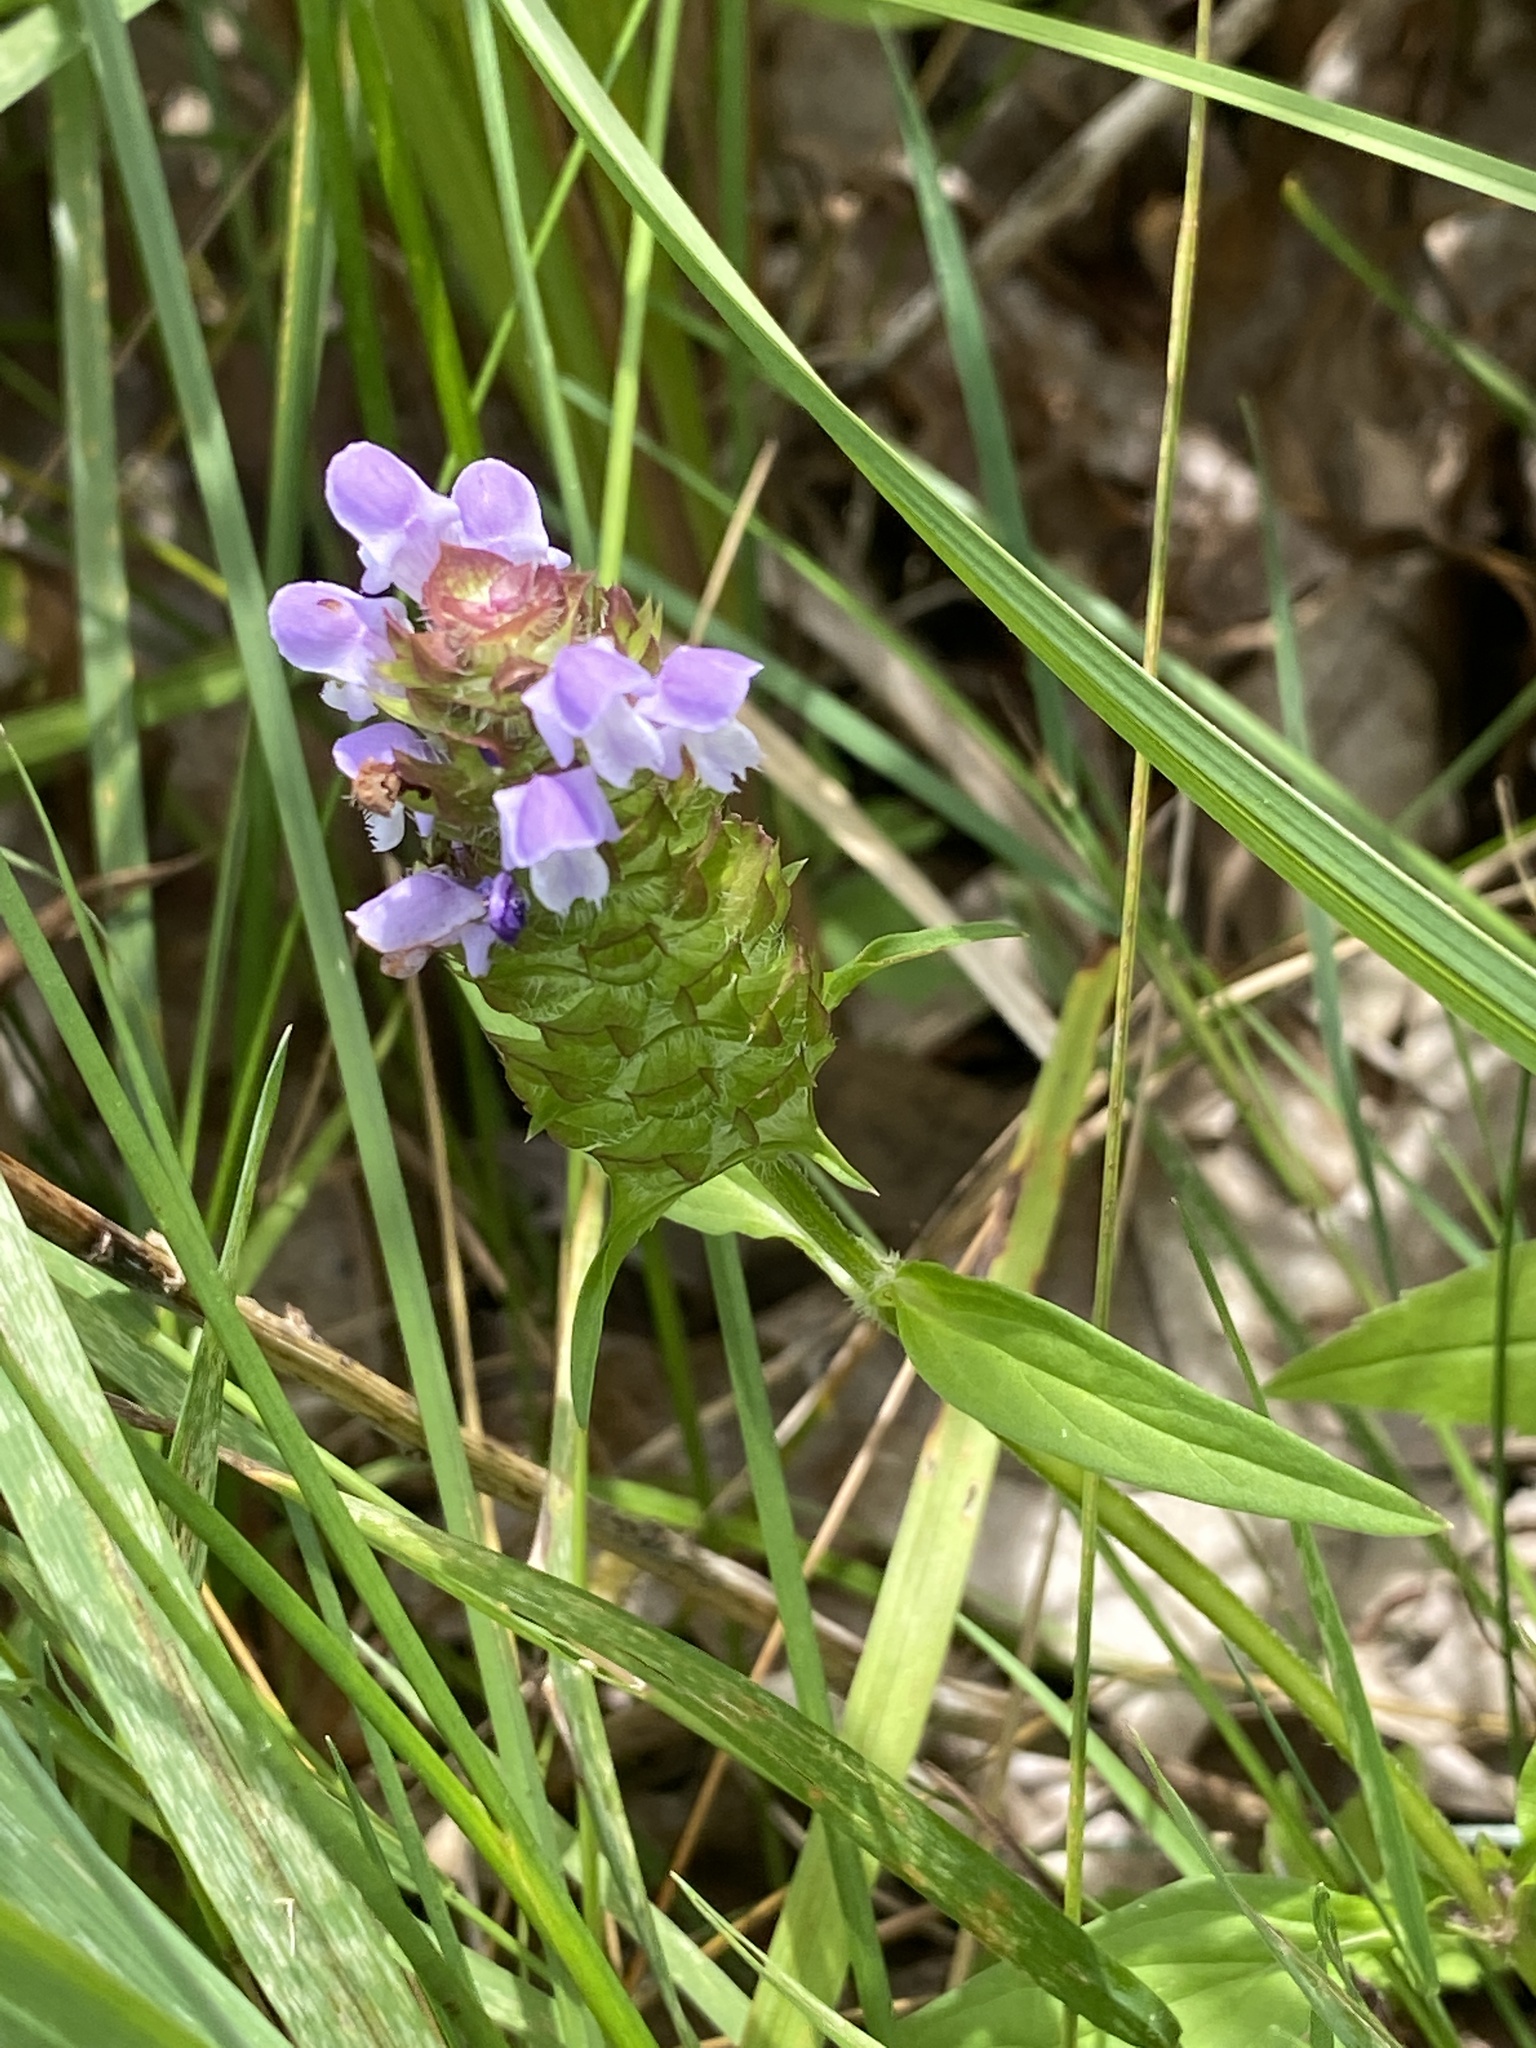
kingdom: Plantae
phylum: Tracheophyta
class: Magnoliopsida
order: Lamiales
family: Lamiaceae
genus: Prunella
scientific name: Prunella vulgaris
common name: Heal-all
